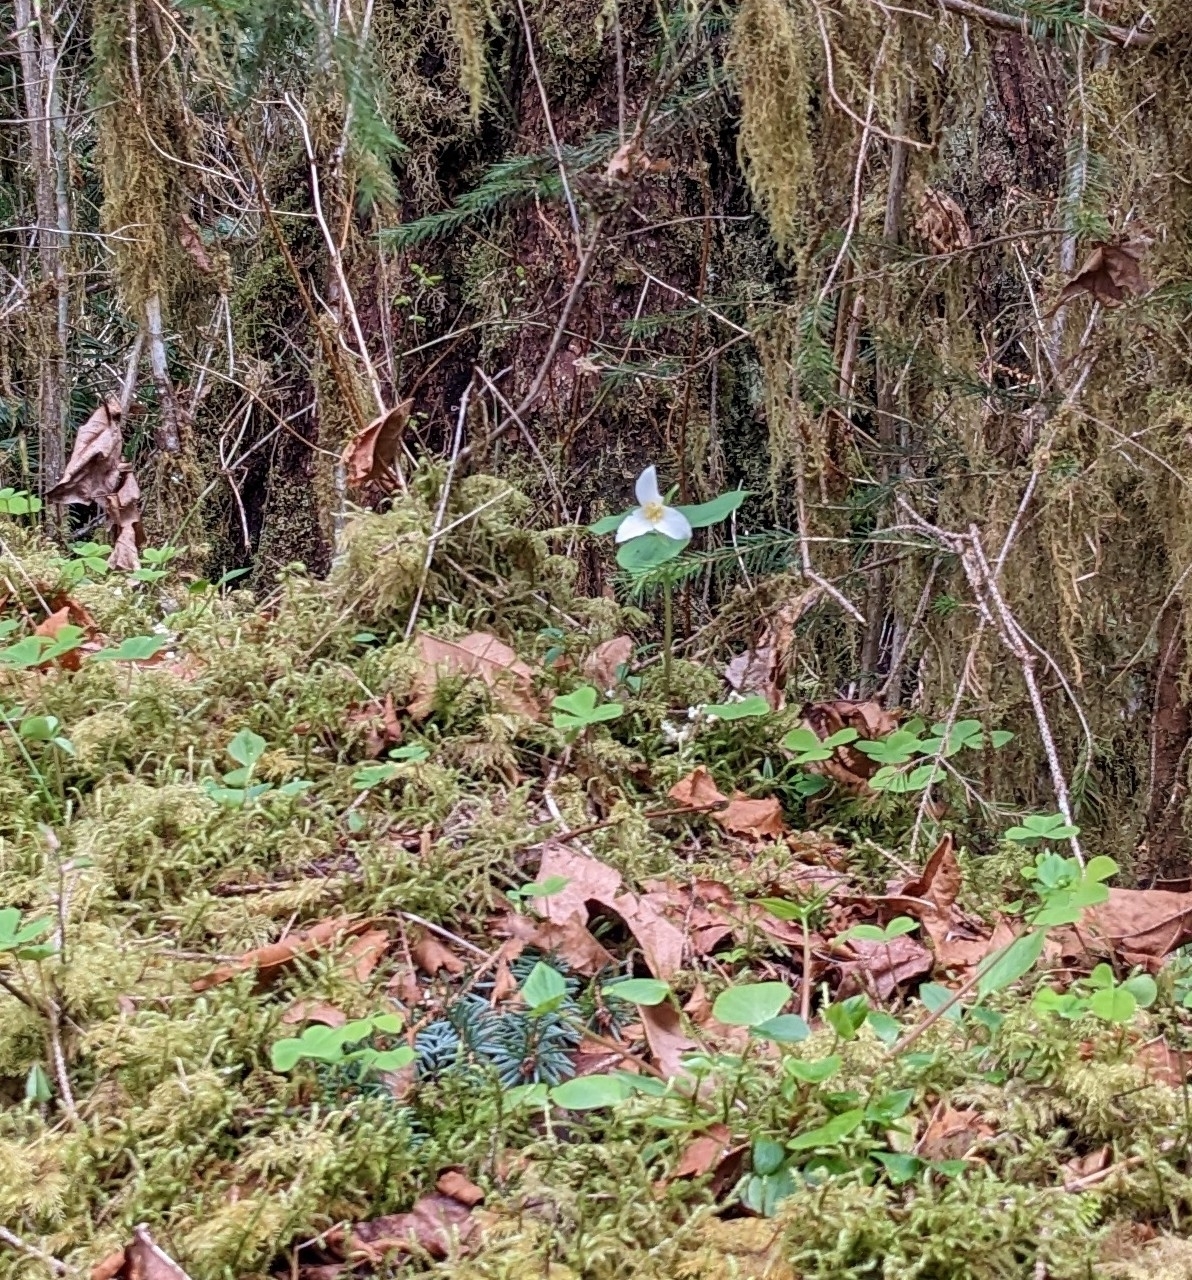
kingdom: Plantae
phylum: Tracheophyta
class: Liliopsida
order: Liliales
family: Melanthiaceae
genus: Trillium
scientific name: Trillium ovatum
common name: Pacific trillium
